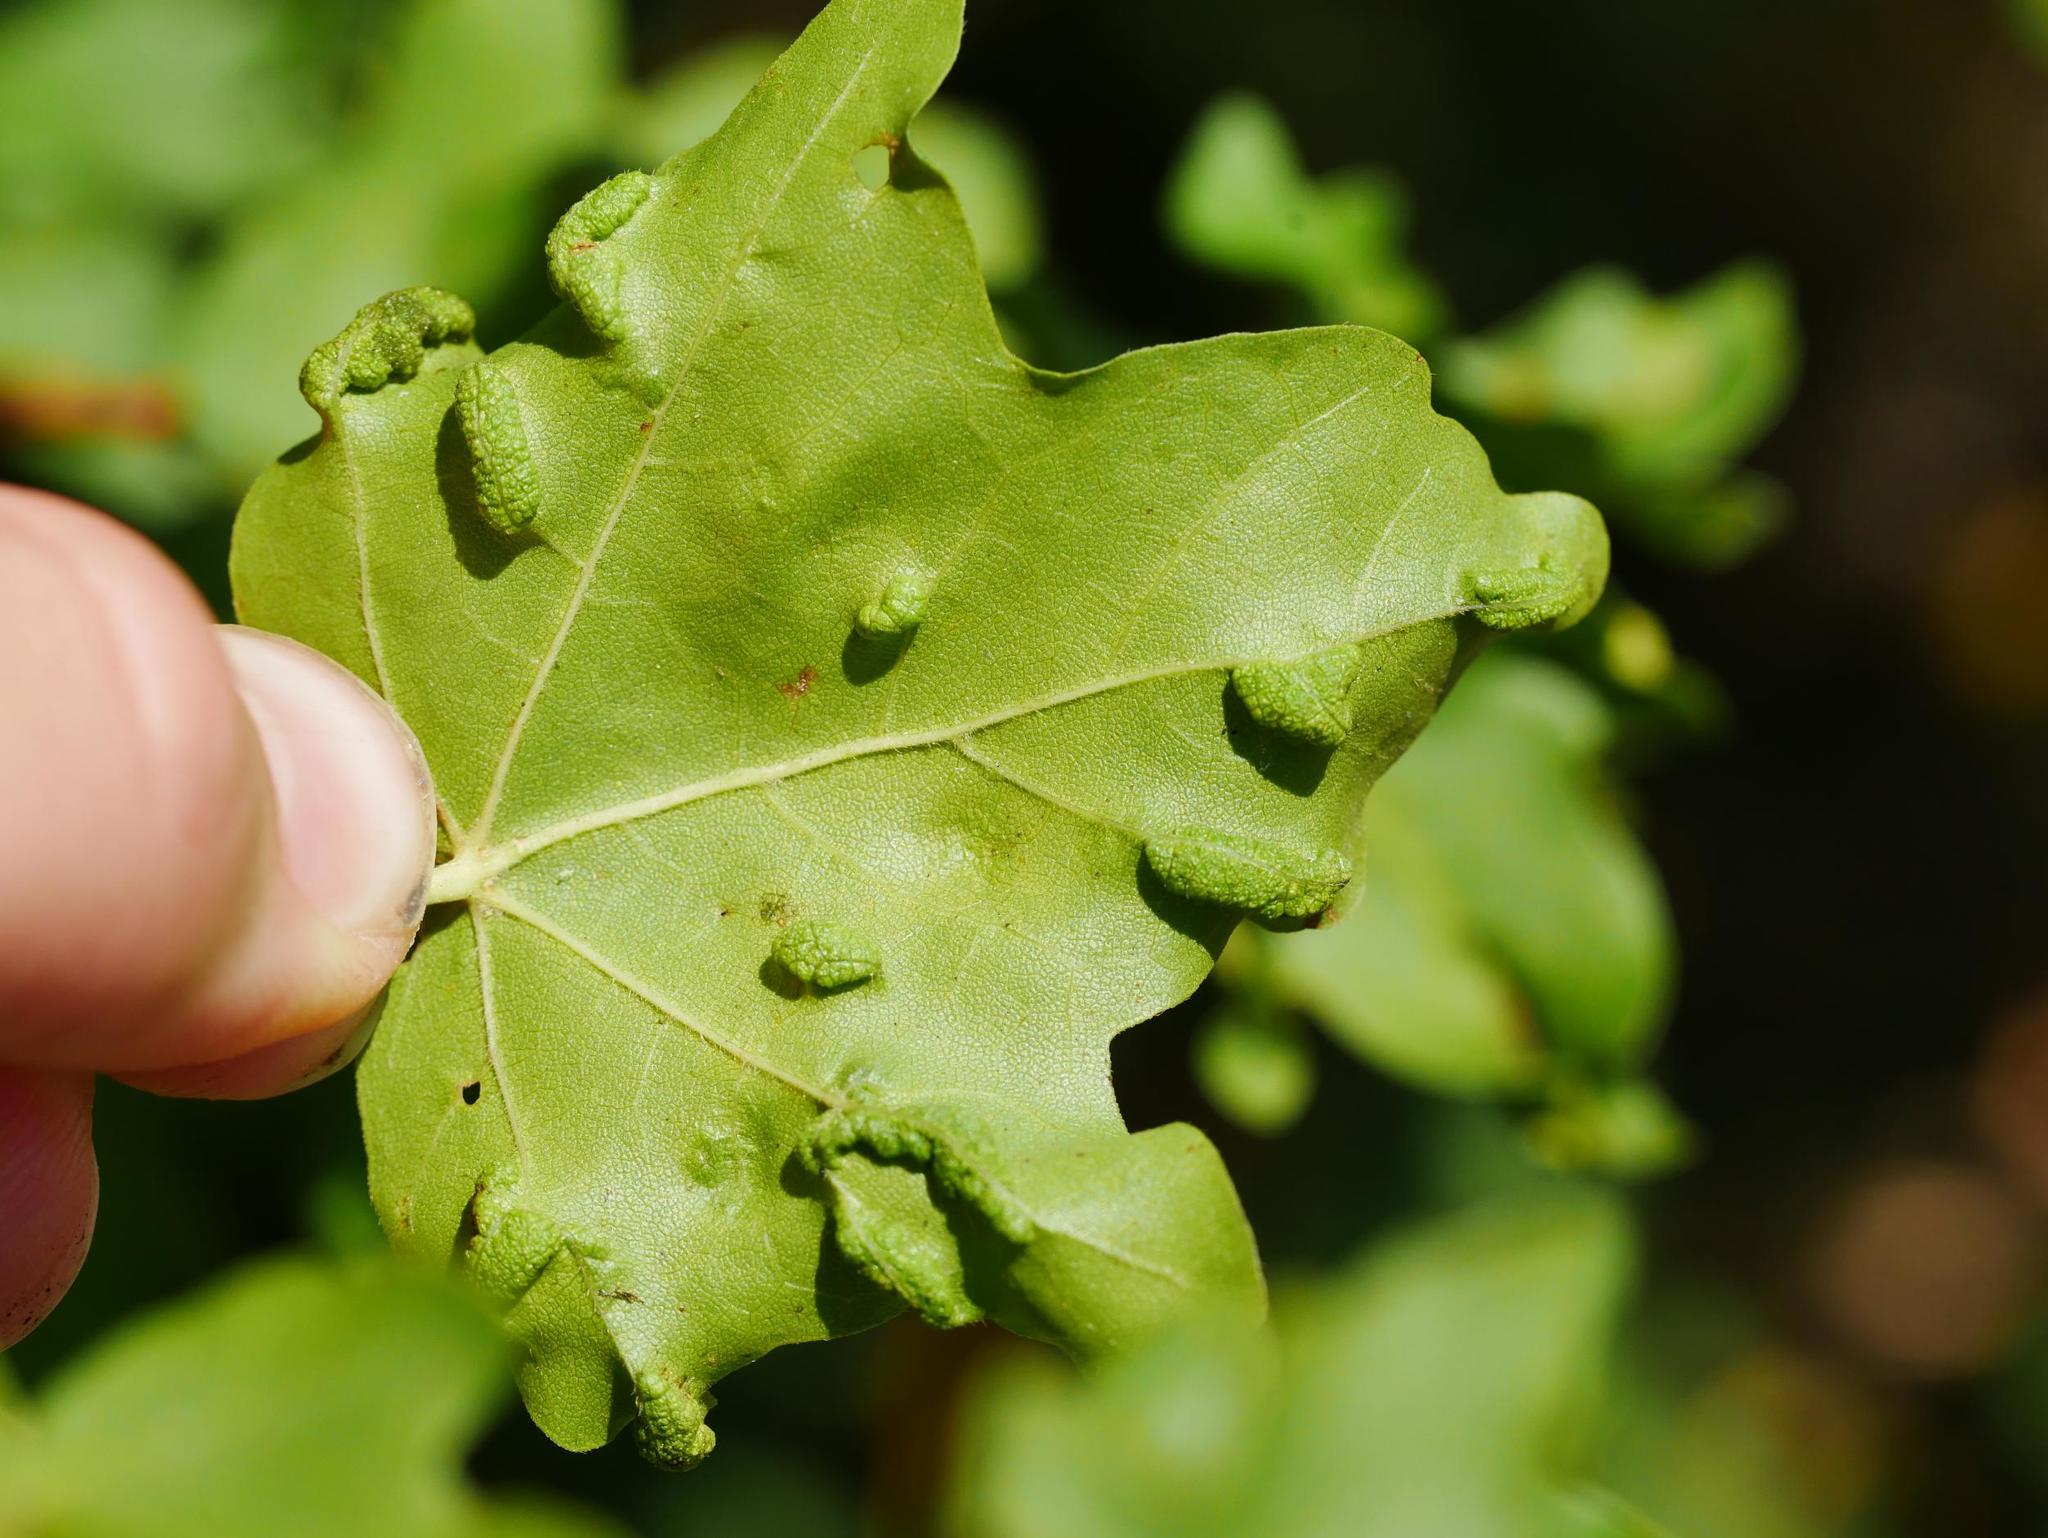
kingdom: Animalia
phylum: Arthropoda
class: Arachnida
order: Trombidiformes
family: Eriophyidae
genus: Aceria
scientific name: Aceria carinifex
